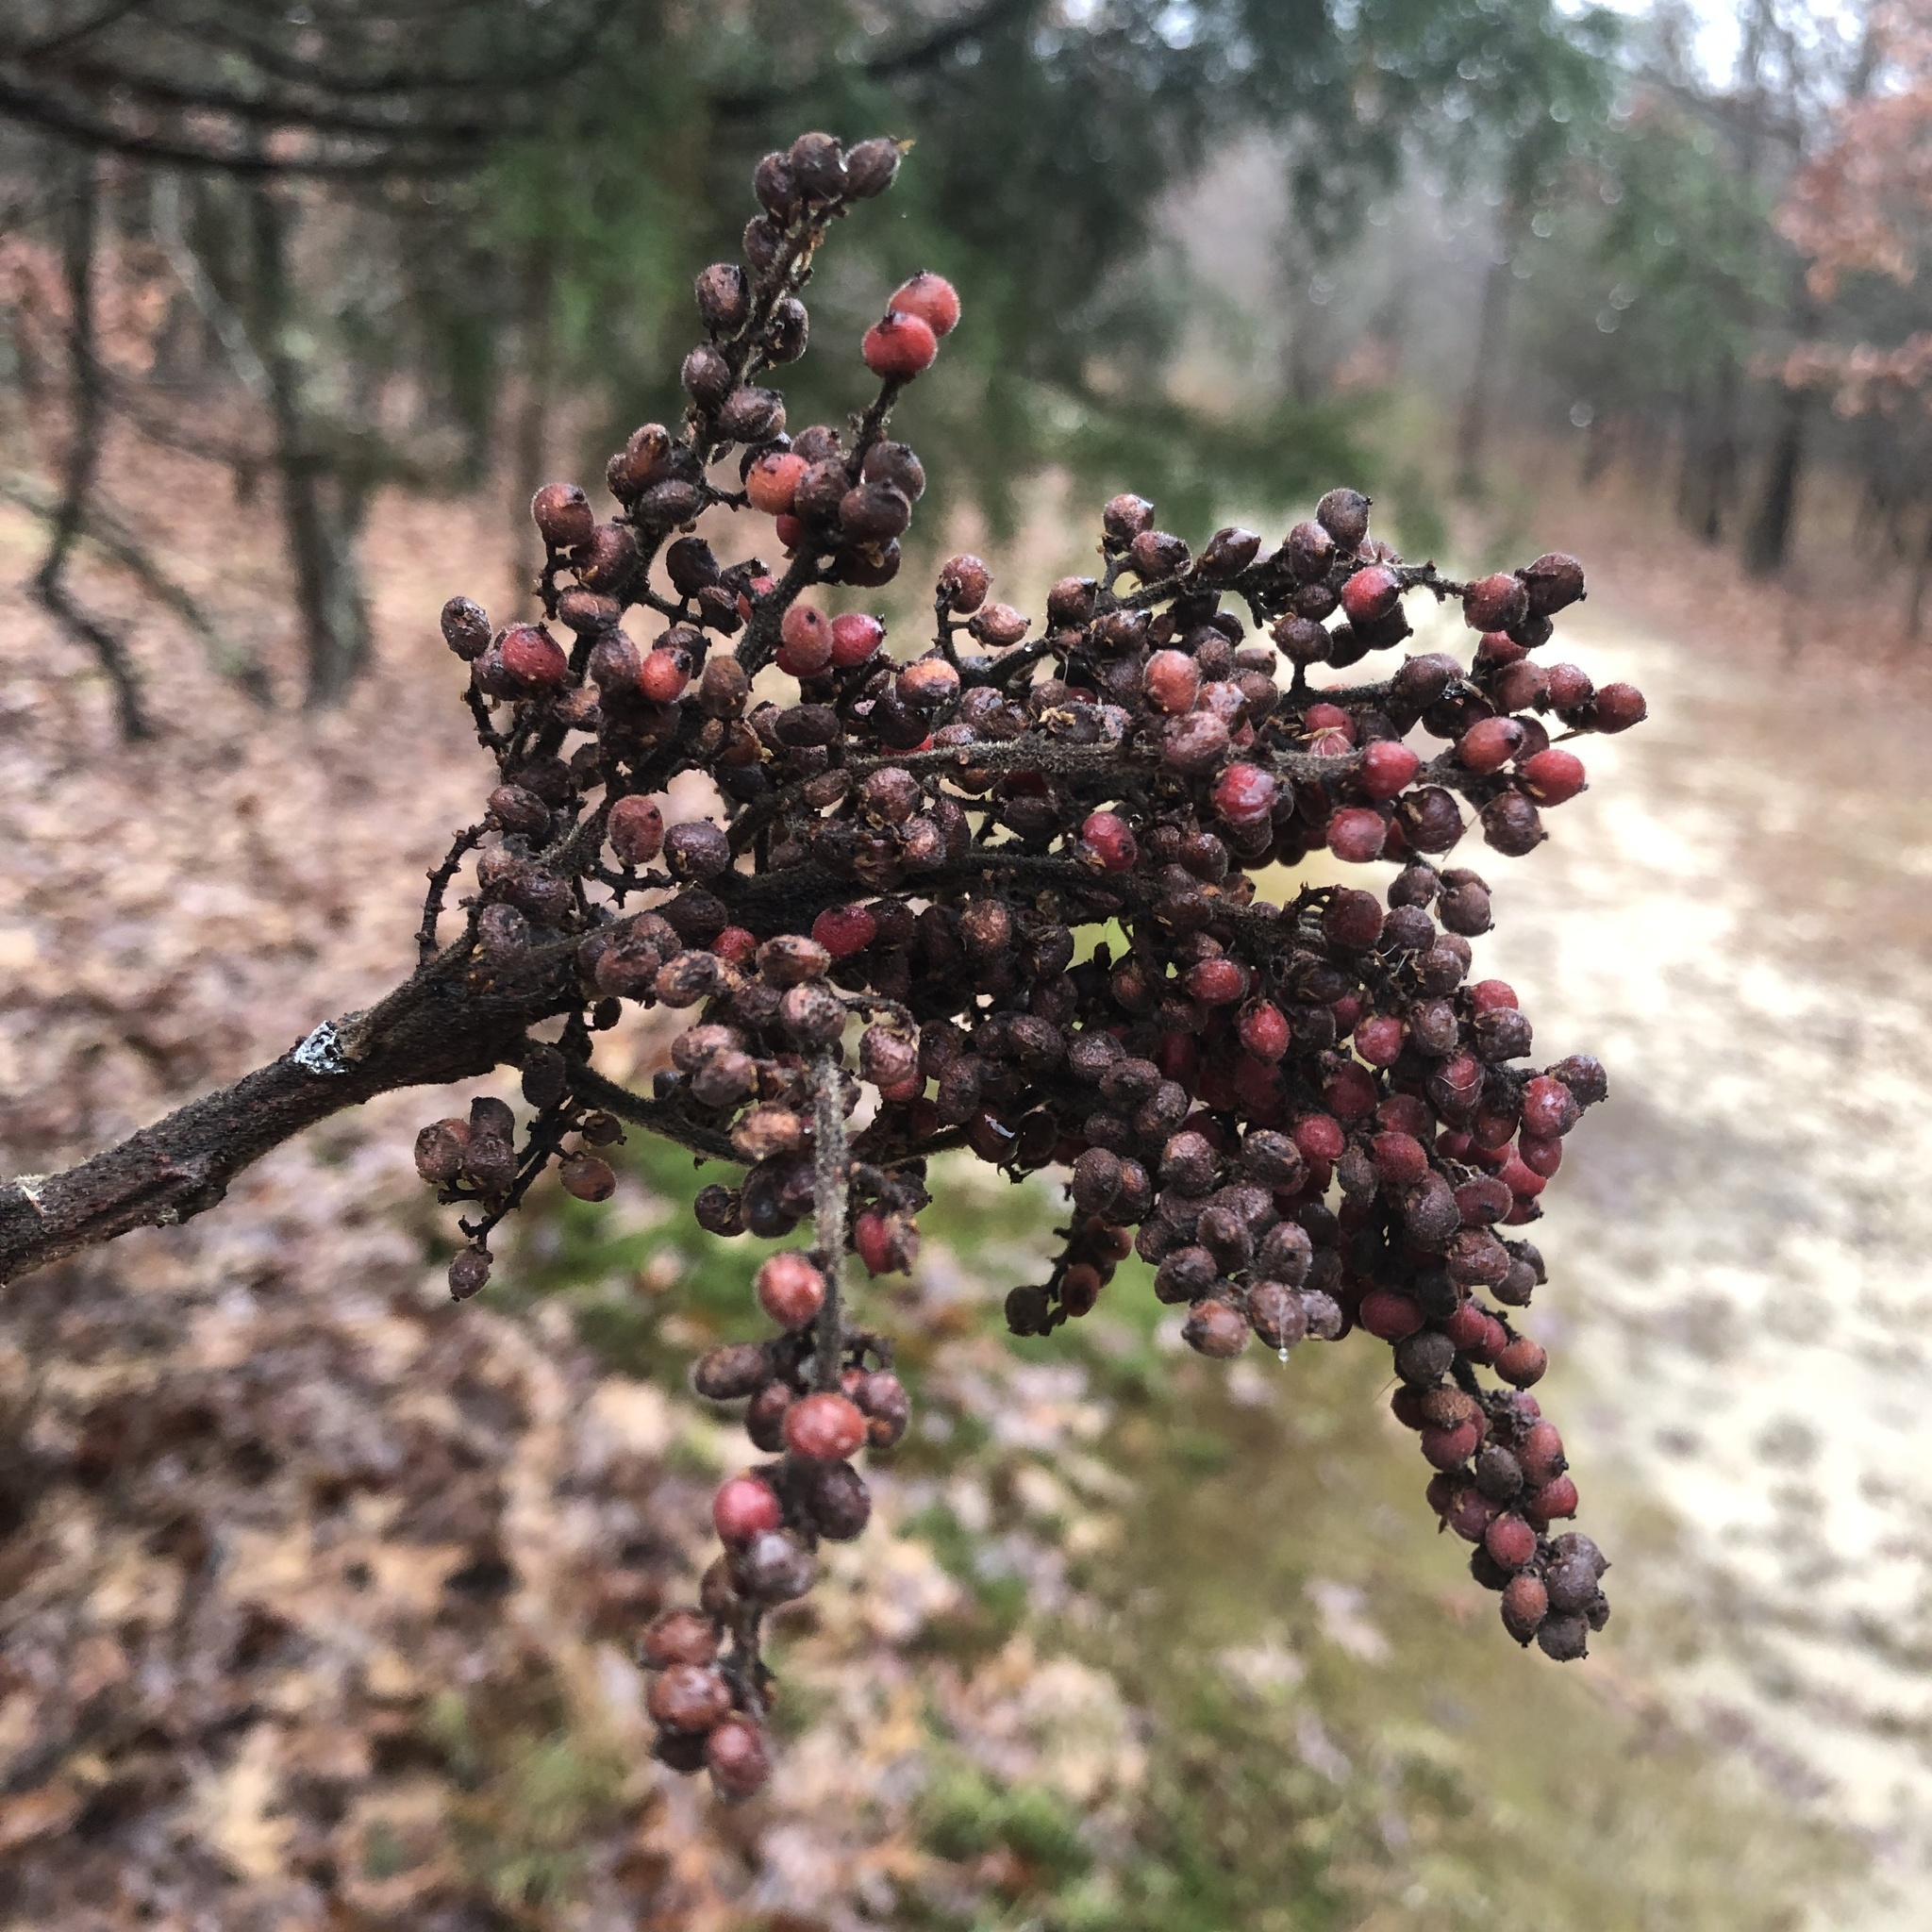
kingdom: Plantae
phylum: Tracheophyta
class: Magnoliopsida
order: Sapindales
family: Anacardiaceae
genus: Rhus
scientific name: Rhus copallina
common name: Shining sumac
